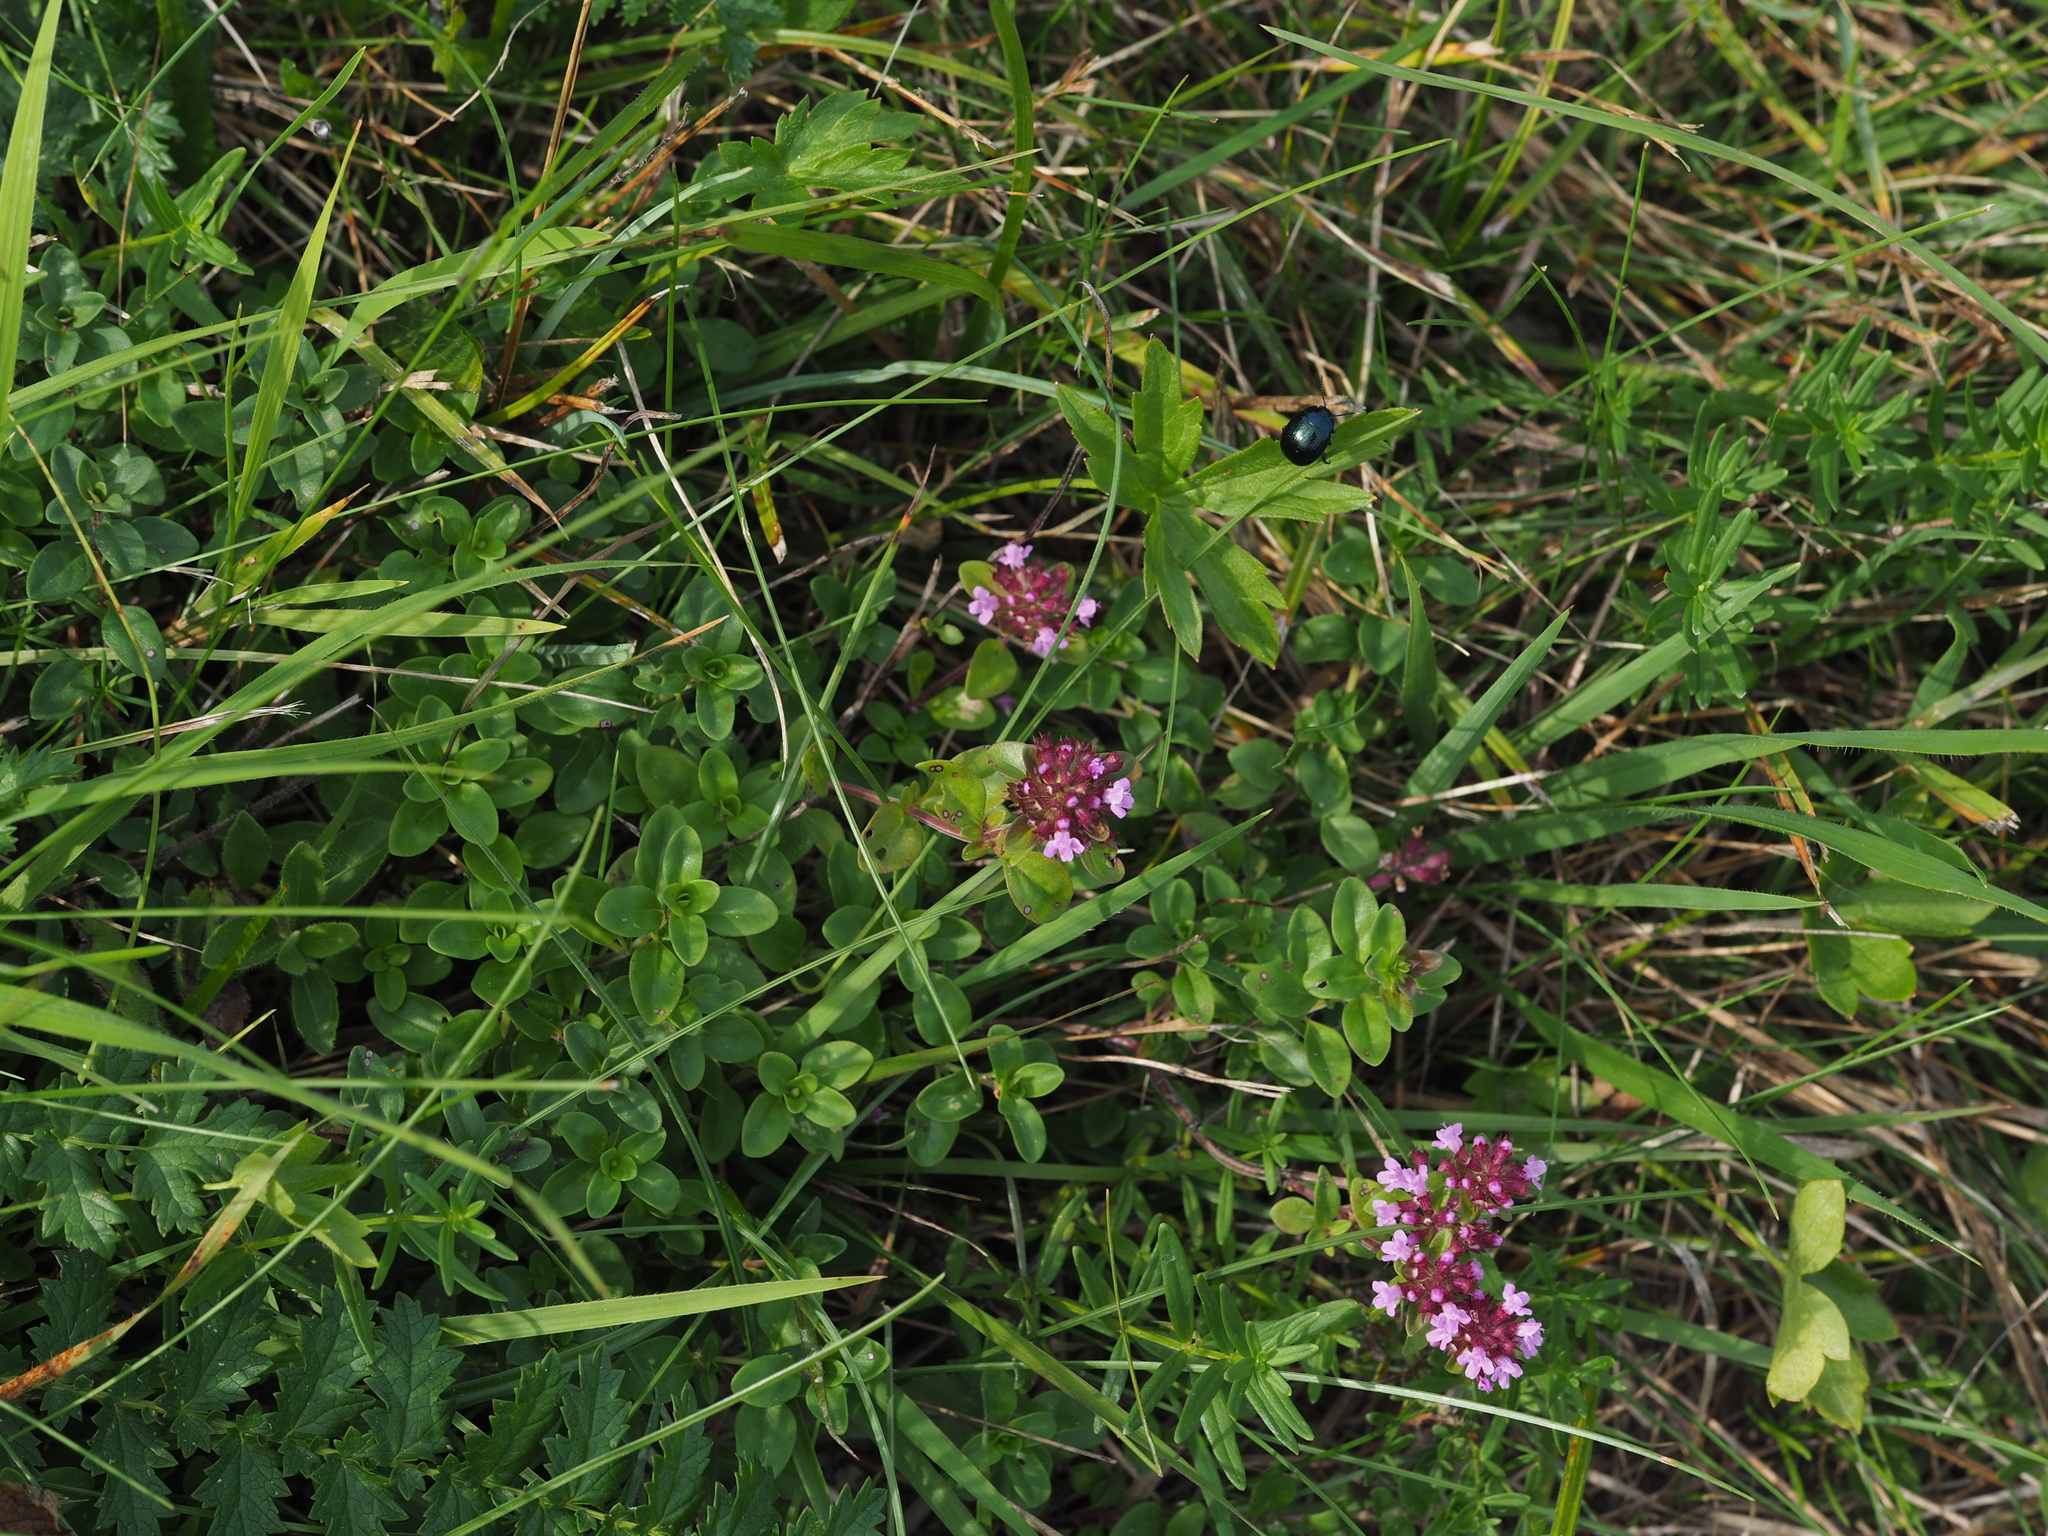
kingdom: Plantae
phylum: Tracheophyta
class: Magnoliopsida
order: Lamiales
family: Lamiaceae
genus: Thymus
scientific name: Thymus pulegioides
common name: Large thyme
